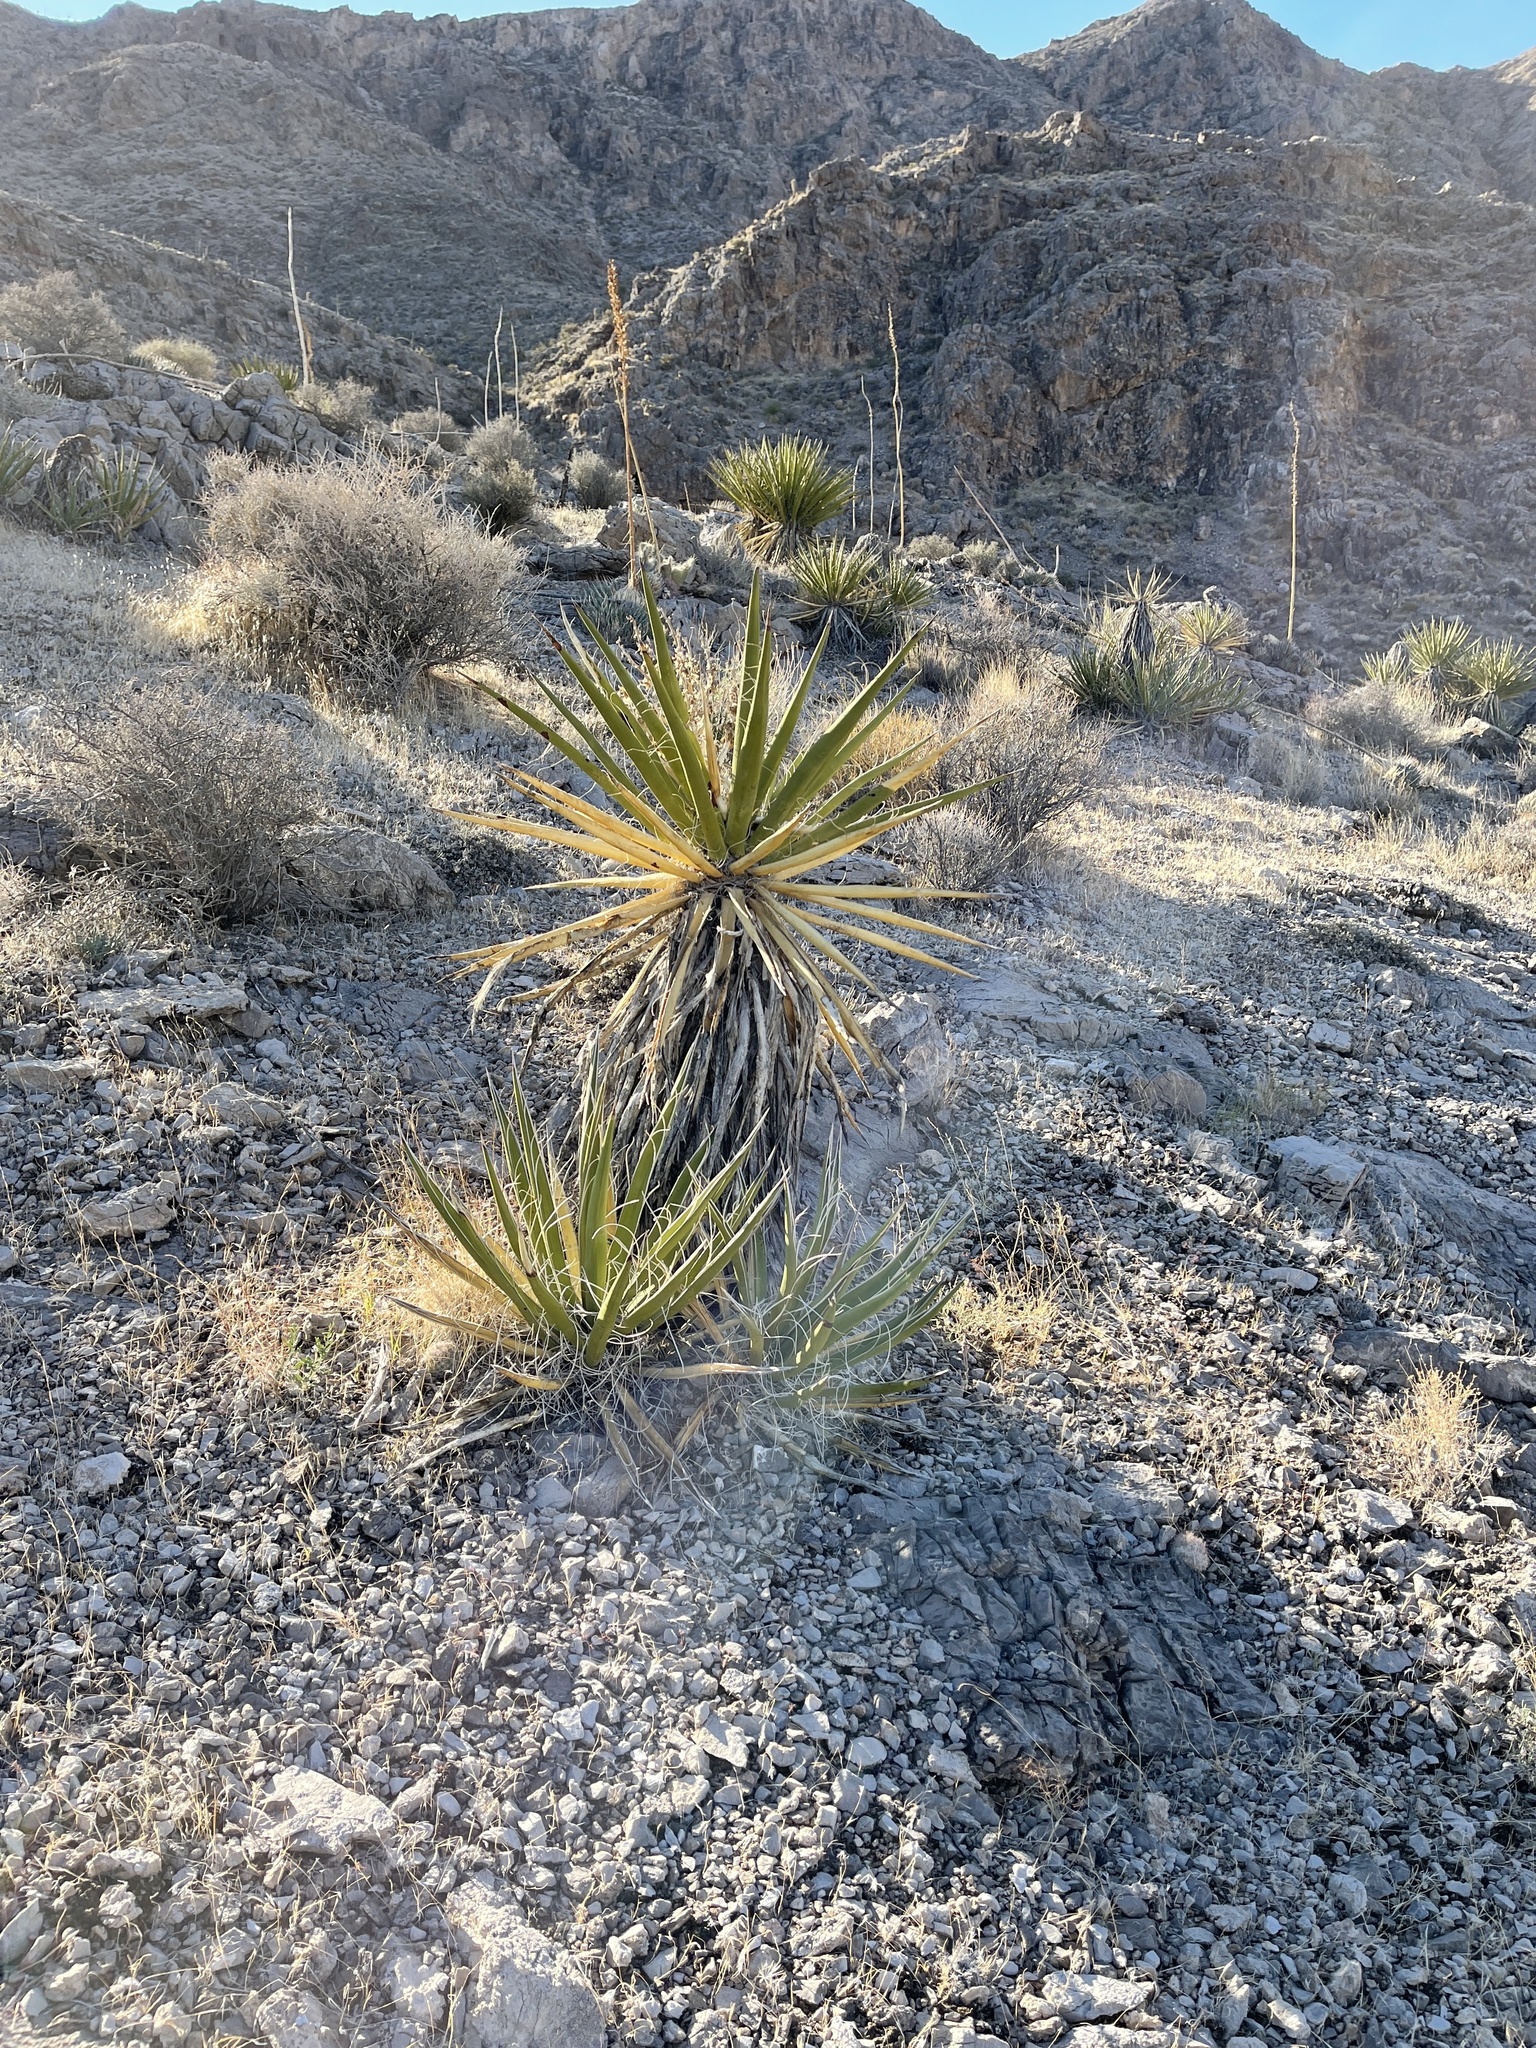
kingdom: Plantae
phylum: Tracheophyta
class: Liliopsida
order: Asparagales
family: Asparagaceae
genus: Yucca
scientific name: Yucca schidigera
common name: Mojave yucca
